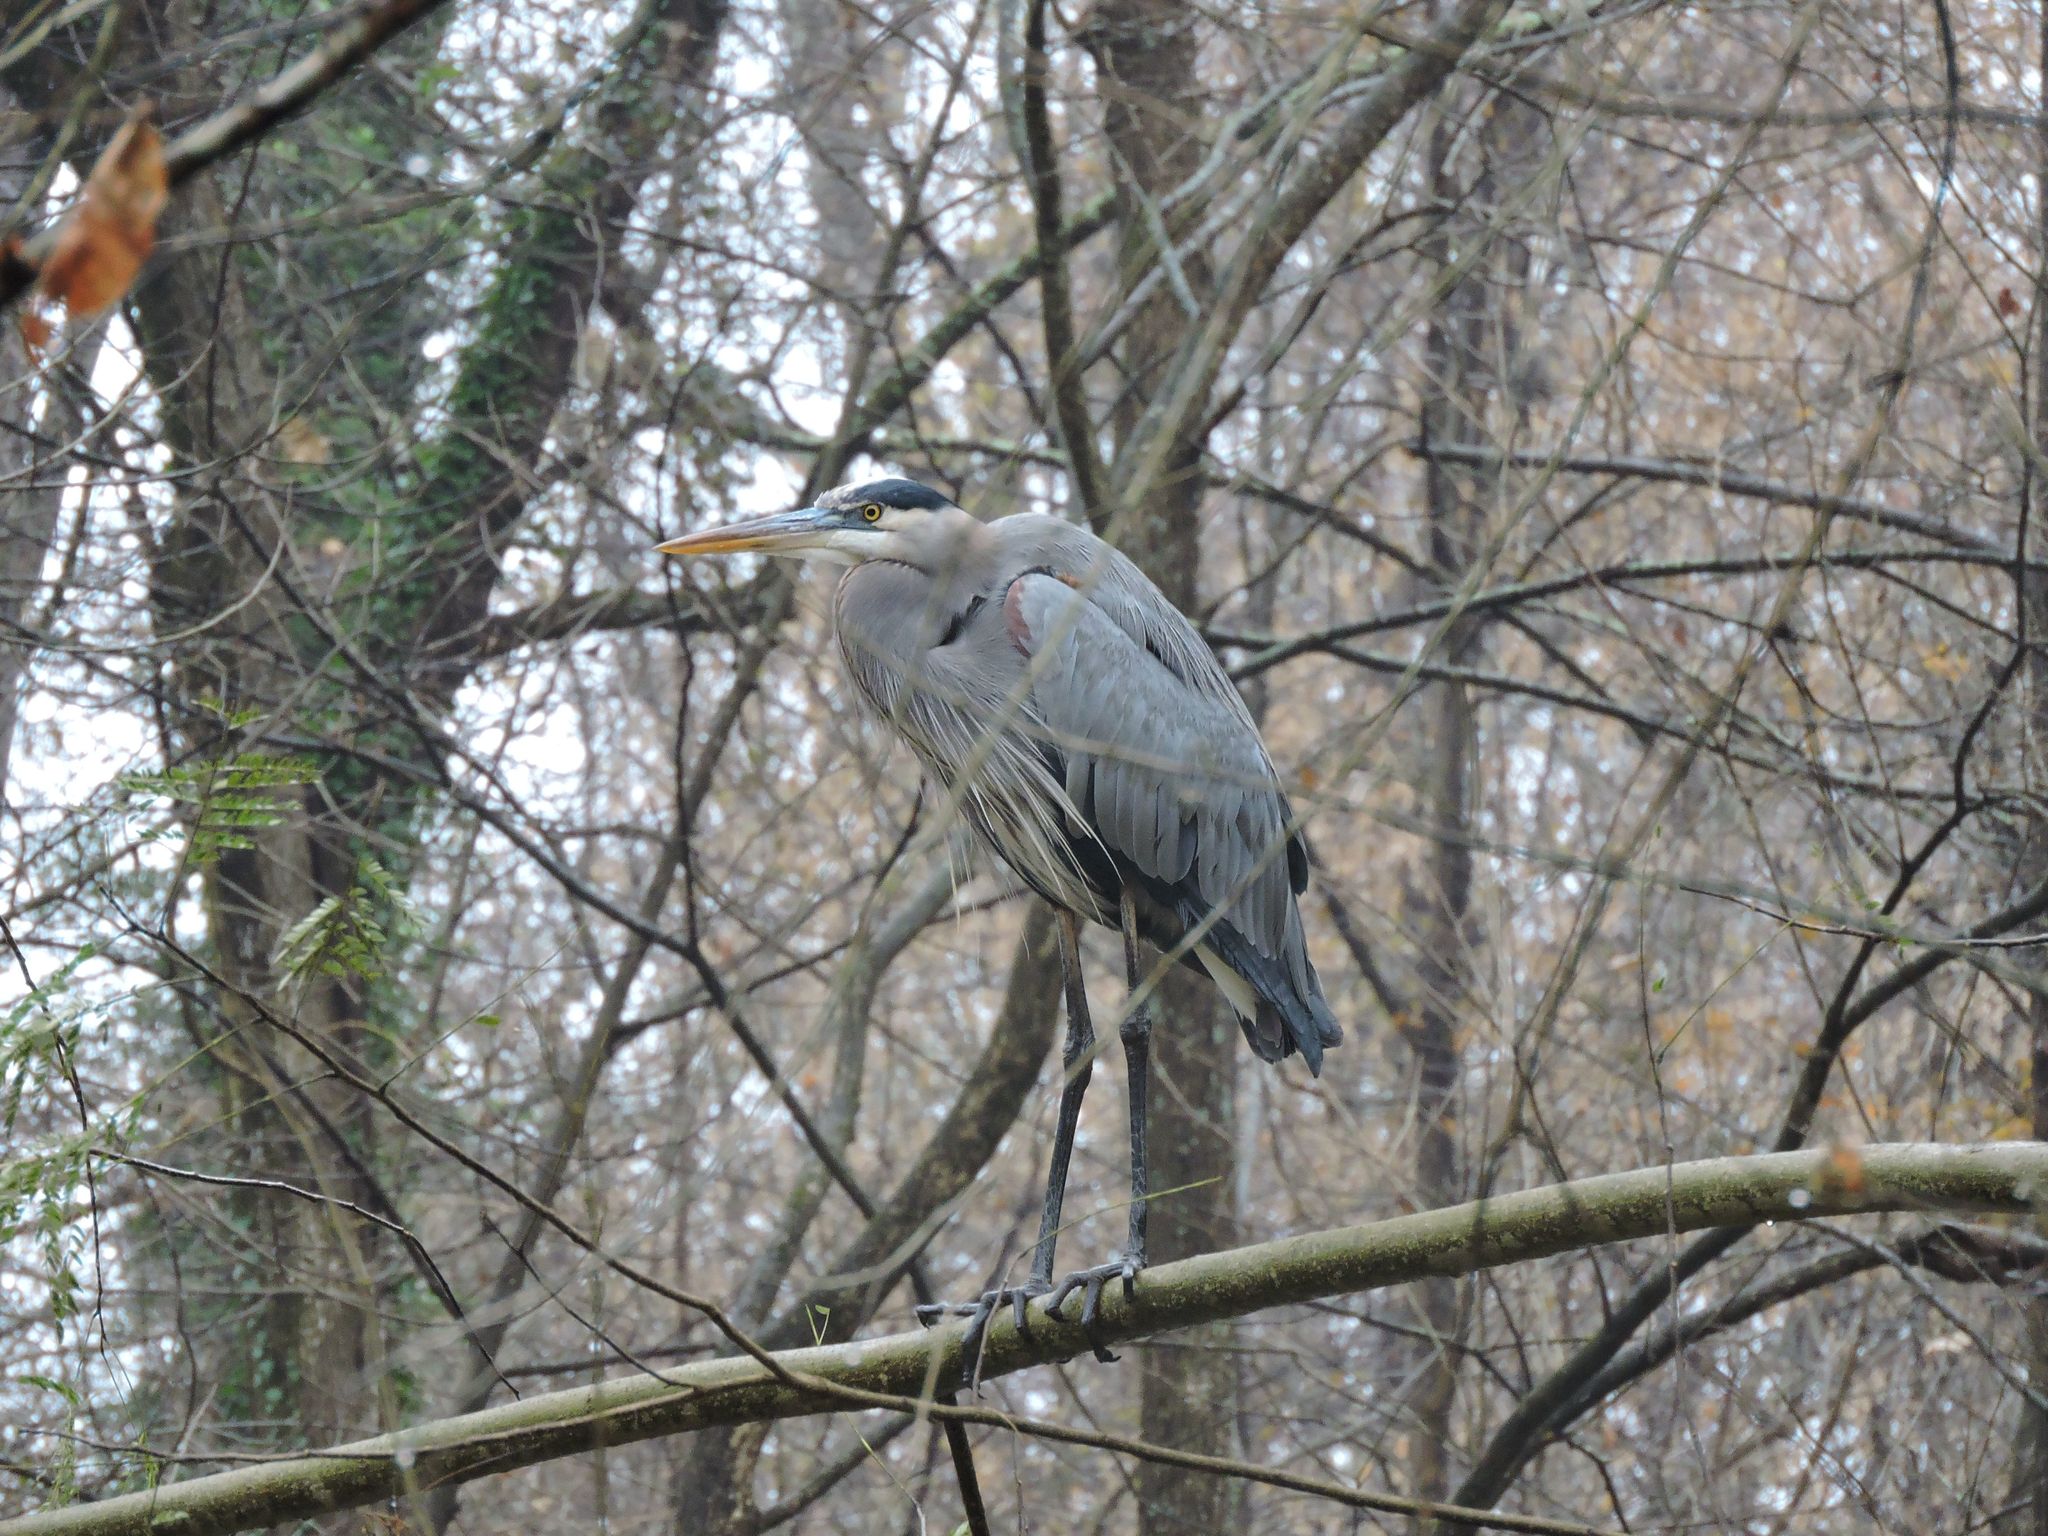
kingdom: Animalia
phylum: Chordata
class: Aves
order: Pelecaniformes
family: Ardeidae
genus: Ardea
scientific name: Ardea herodias
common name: Great blue heron
